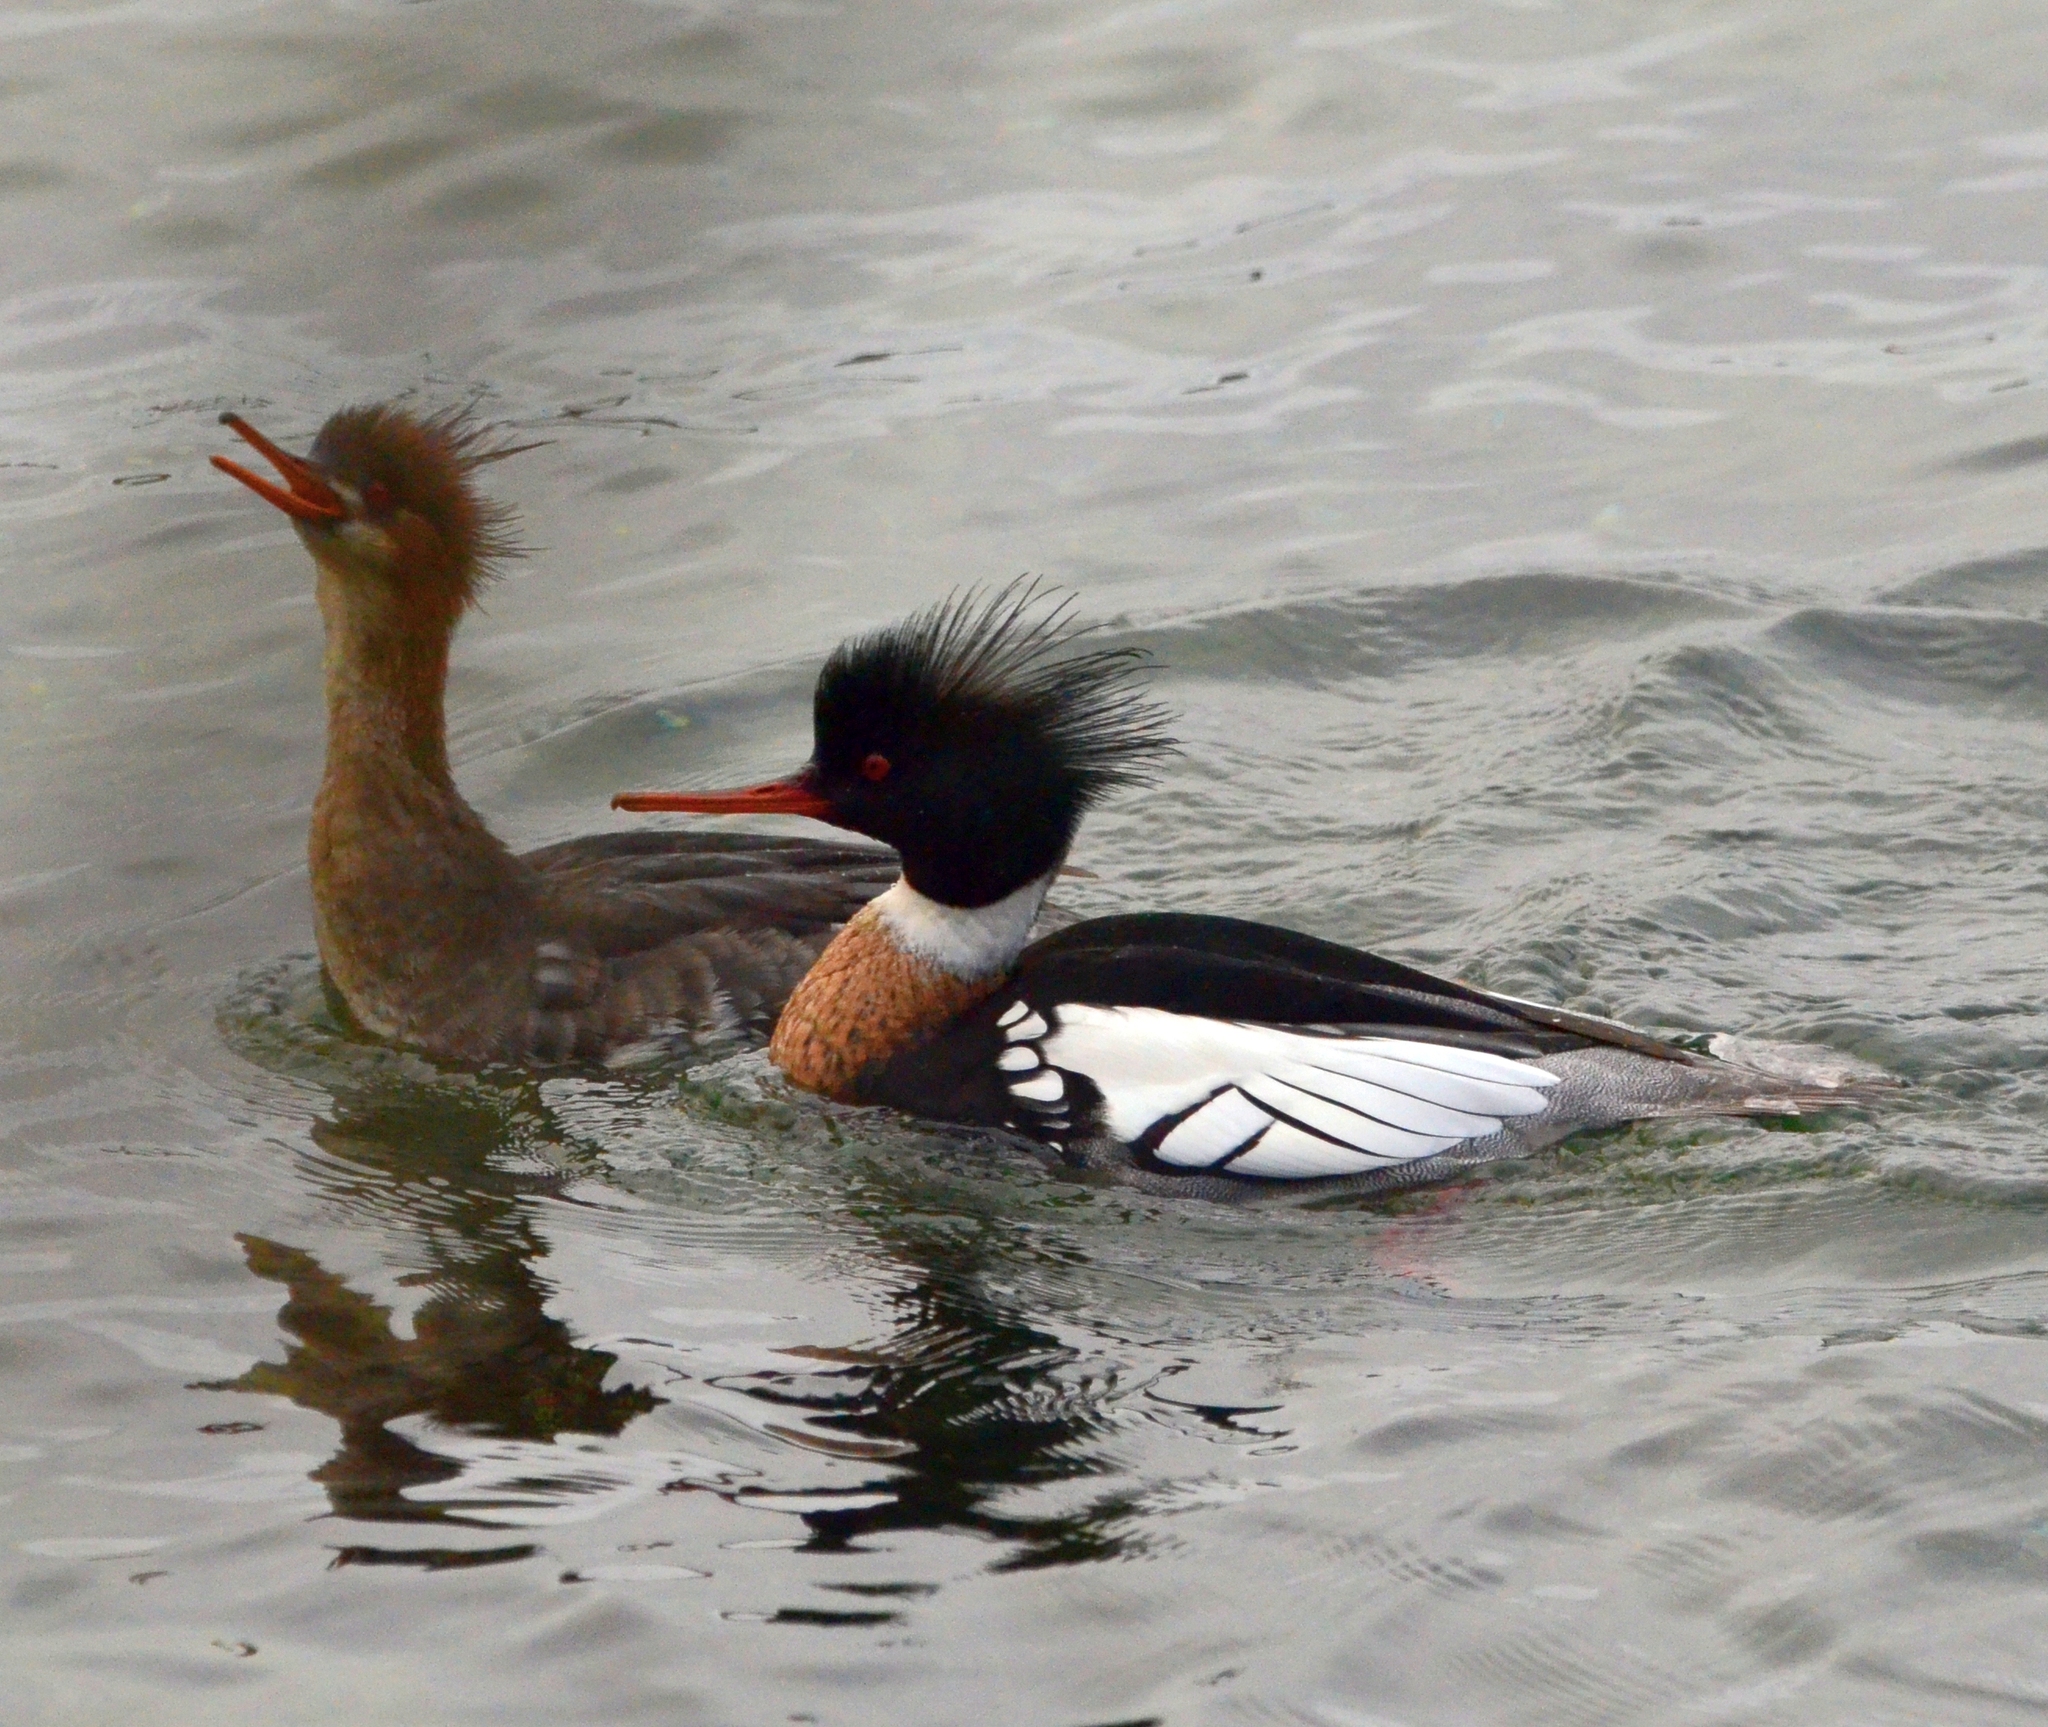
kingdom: Animalia
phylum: Chordata
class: Aves
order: Anseriformes
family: Anatidae
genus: Mergus
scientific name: Mergus serrator
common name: Red-breasted merganser
